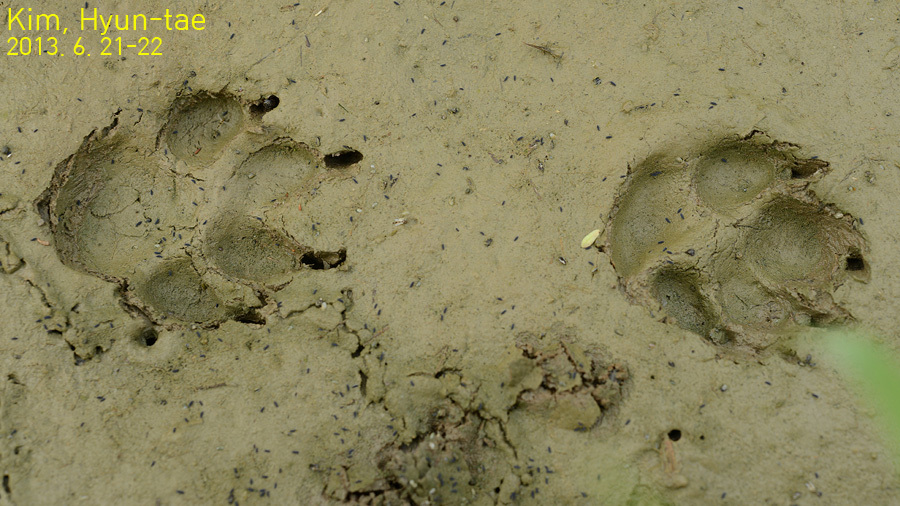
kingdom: Animalia
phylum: Chordata
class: Mammalia
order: Carnivora
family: Canidae
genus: Nyctereutes
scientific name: Nyctereutes procyonoides
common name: Raccoon dog
